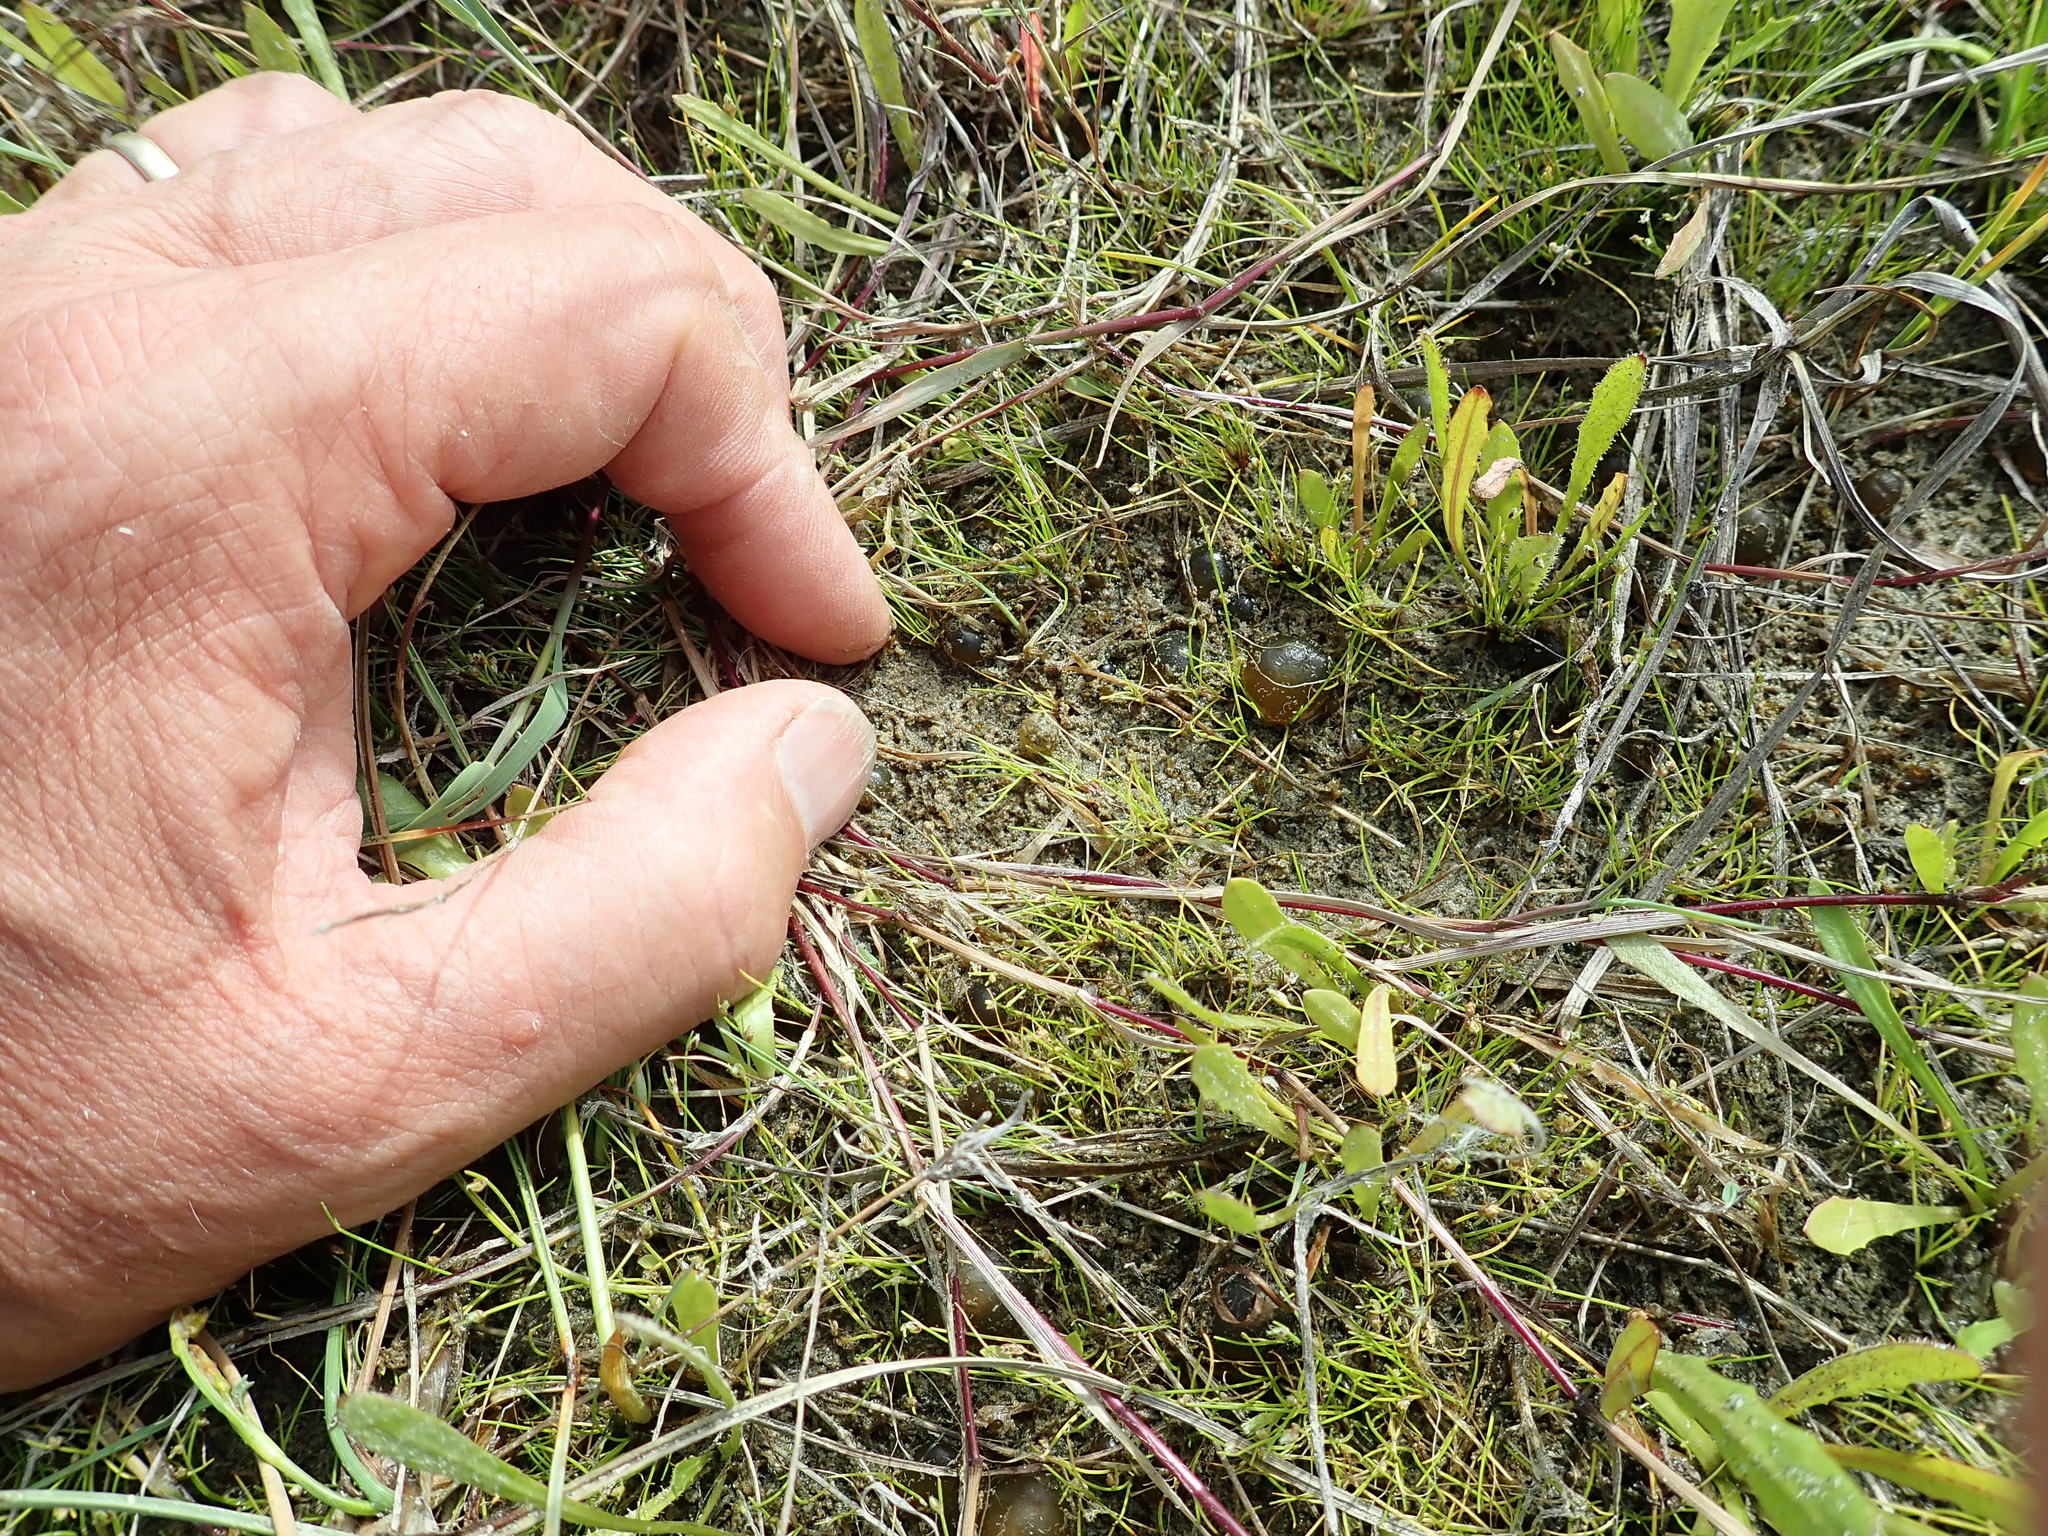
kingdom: Bacteria
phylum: Cyanobacteria
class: Cyanobacteriia
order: Cyanobacteriales
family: Nostocaceae
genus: Nostoc
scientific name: Nostoc commune
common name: Star jelly
